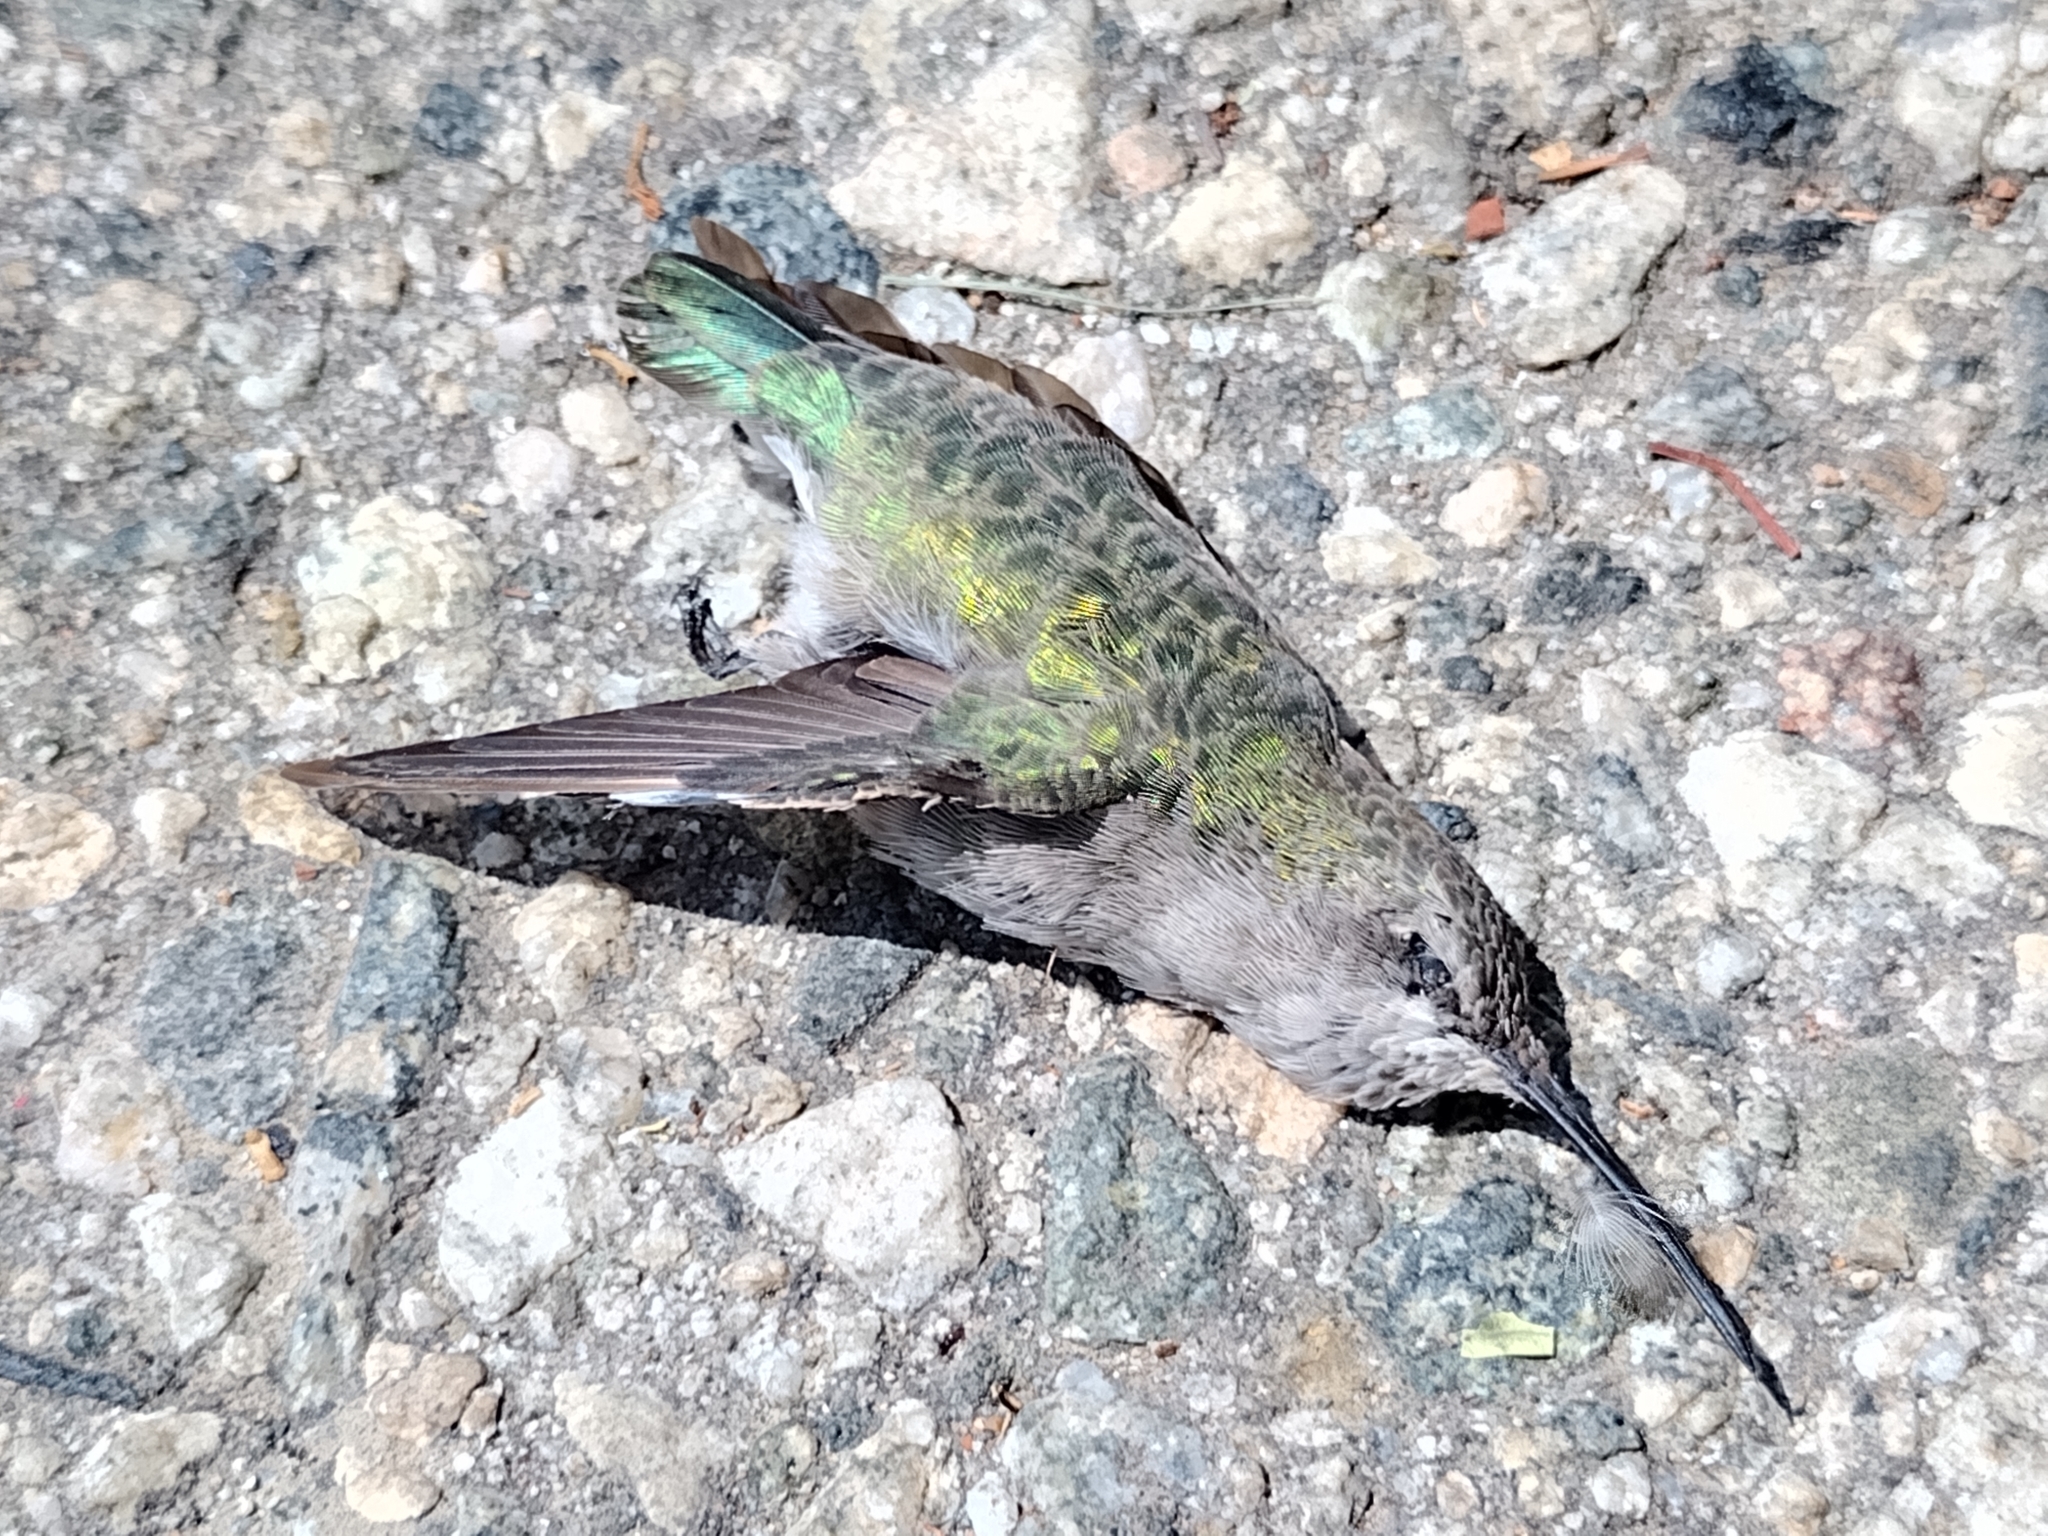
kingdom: Animalia
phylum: Chordata
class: Aves
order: Apodiformes
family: Trochilidae
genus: Calypte
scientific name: Calypte anna
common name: Anna's hummingbird
